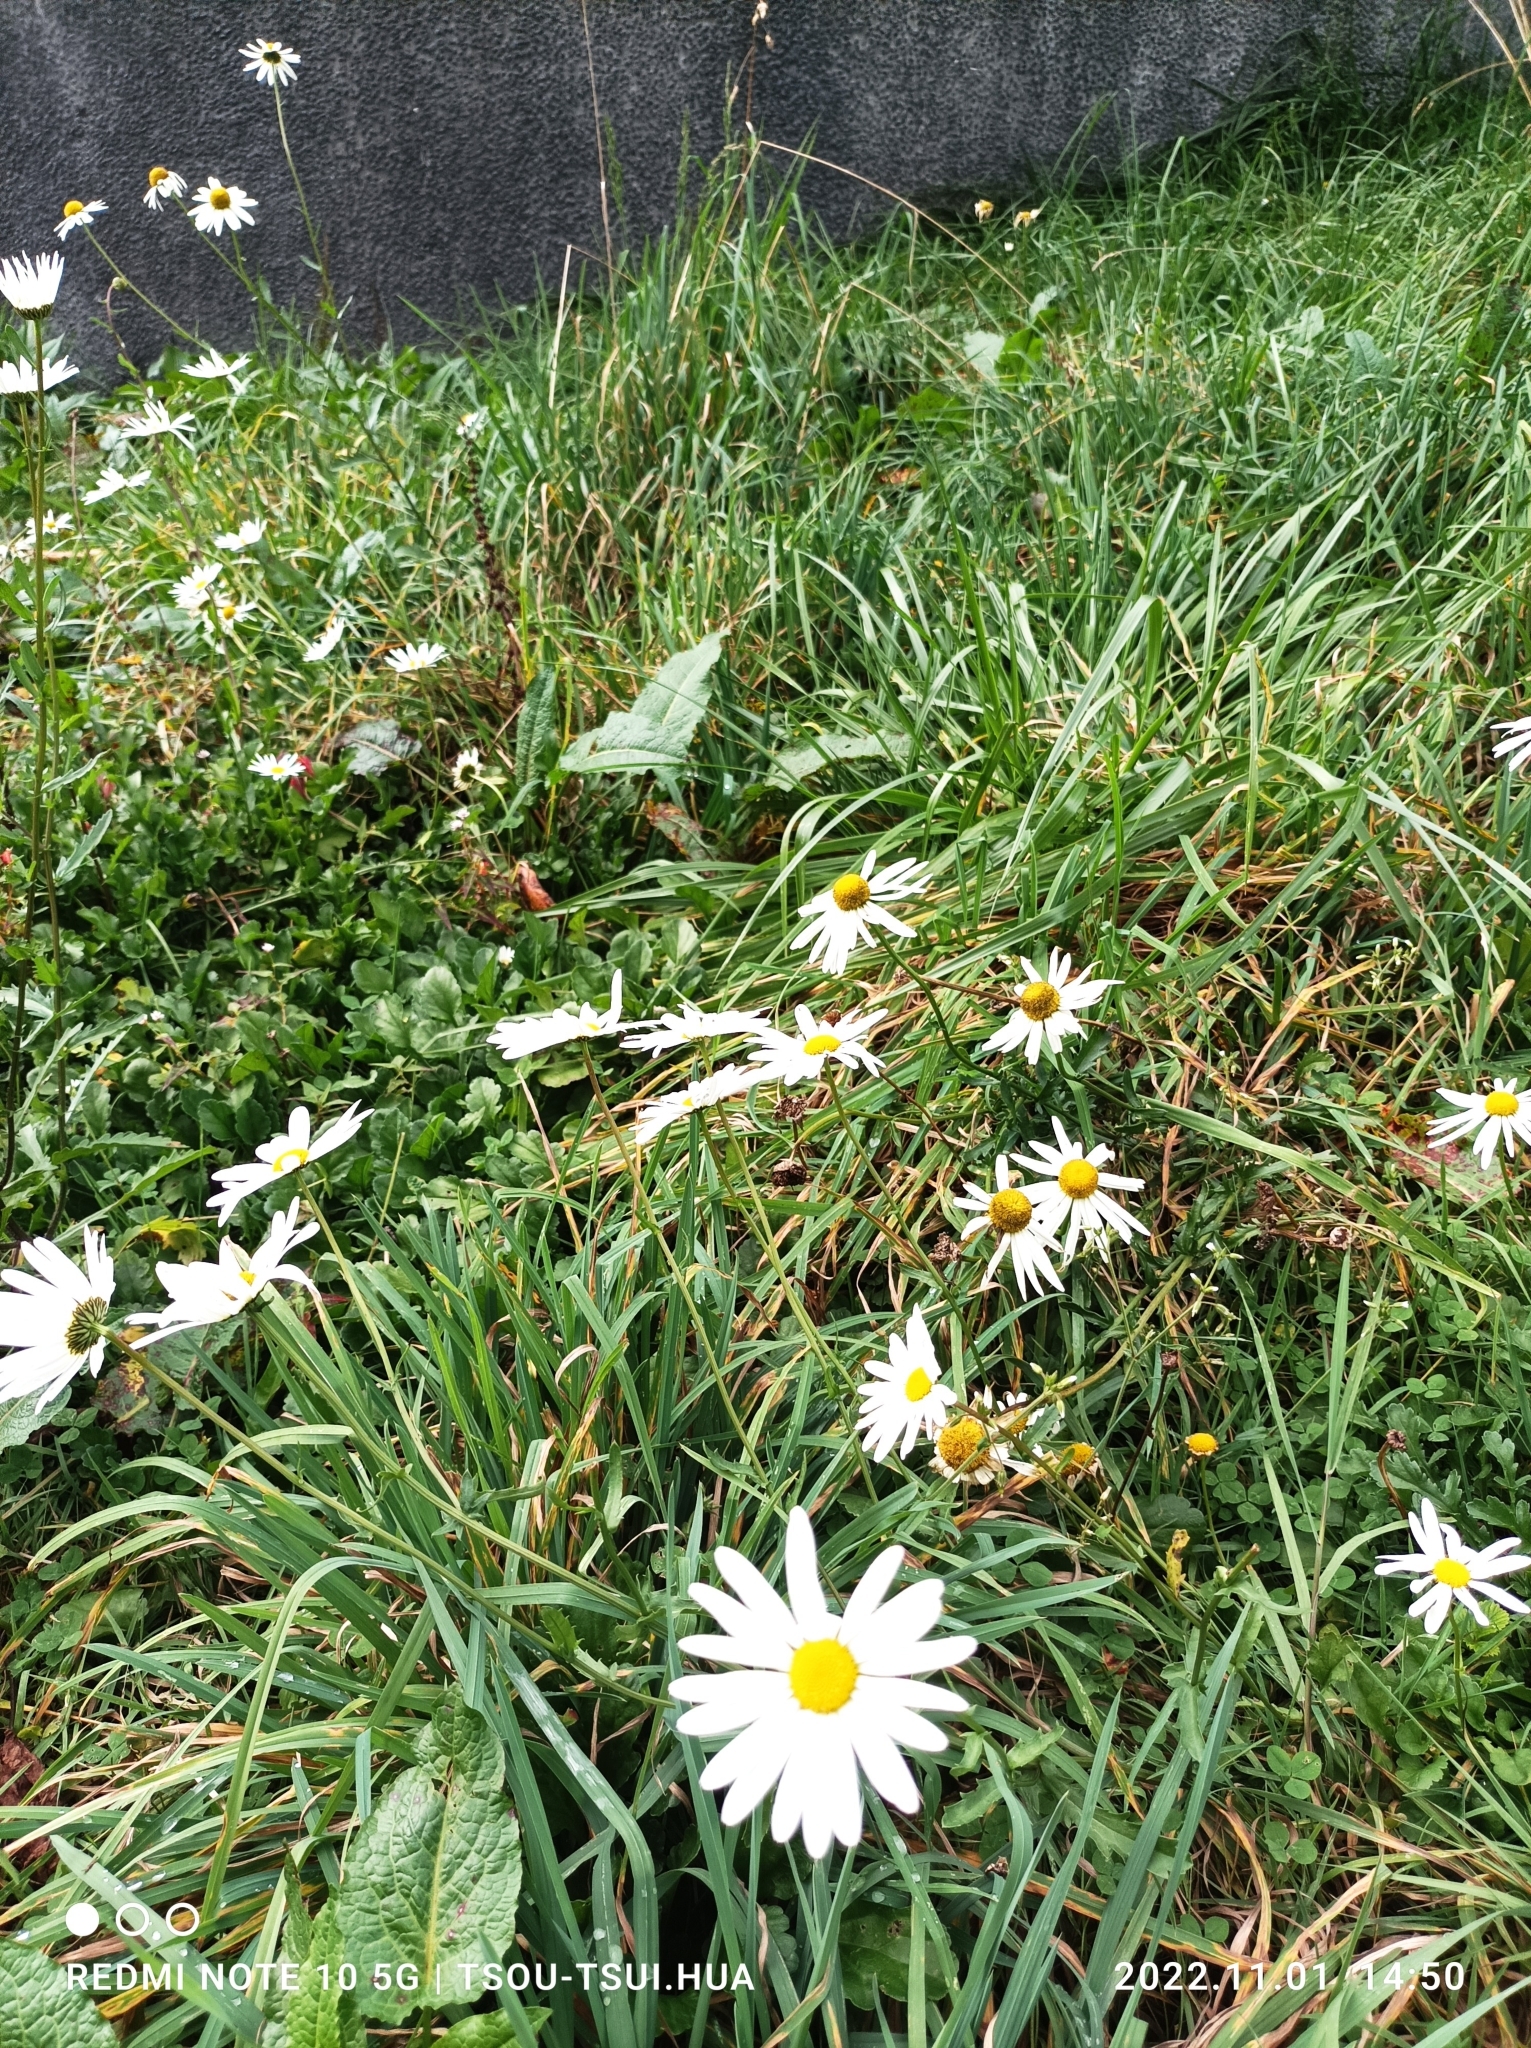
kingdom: Plantae
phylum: Tracheophyta
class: Magnoliopsida
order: Asterales
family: Asteraceae
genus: Leucanthemum
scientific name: Leucanthemum vulgare
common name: Oxeye daisy
